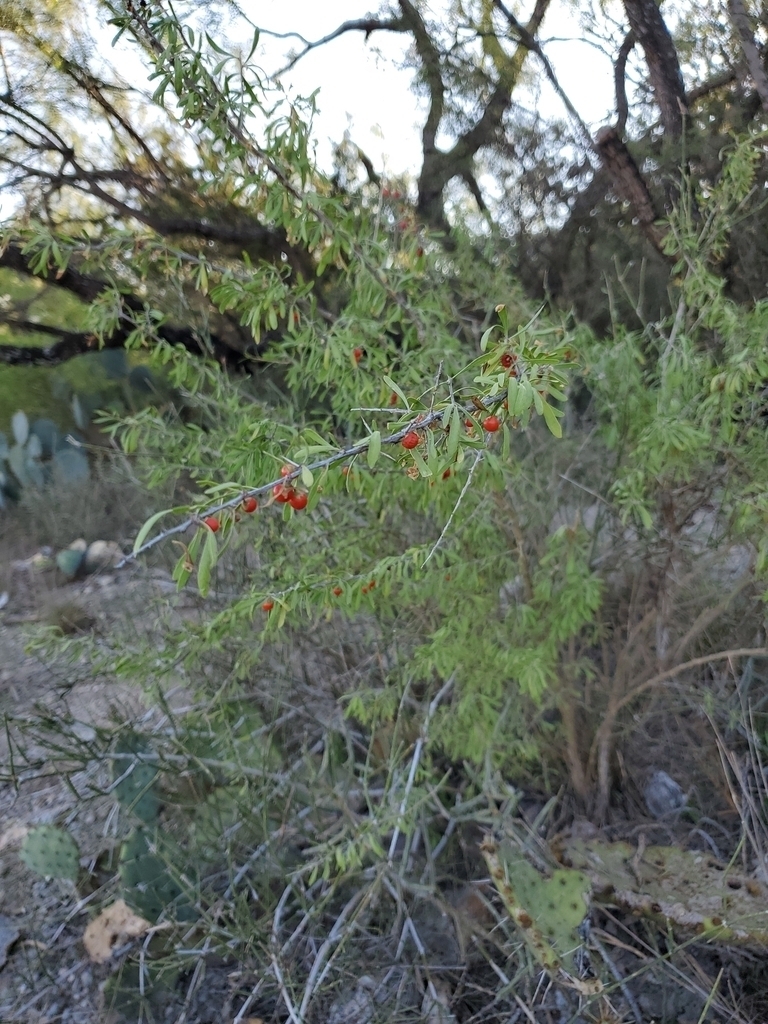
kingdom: Plantae
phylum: Tracheophyta
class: Magnoliopsida
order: Solanales
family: Solanaceae
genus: Lycium
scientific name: Lycium berlandieri
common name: Berlandier wolfberry
